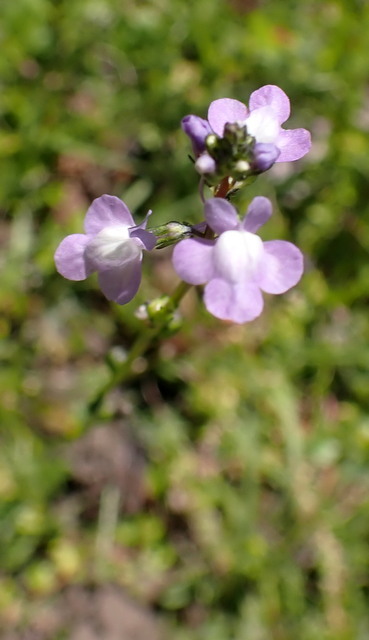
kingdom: Plantae
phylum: Tracheophyta
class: Magnoliopsida
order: Lamiales
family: Plantaginaceae
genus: Nuttallanthus
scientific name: Nuttallanthus canadensis
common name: Blue toadflax
